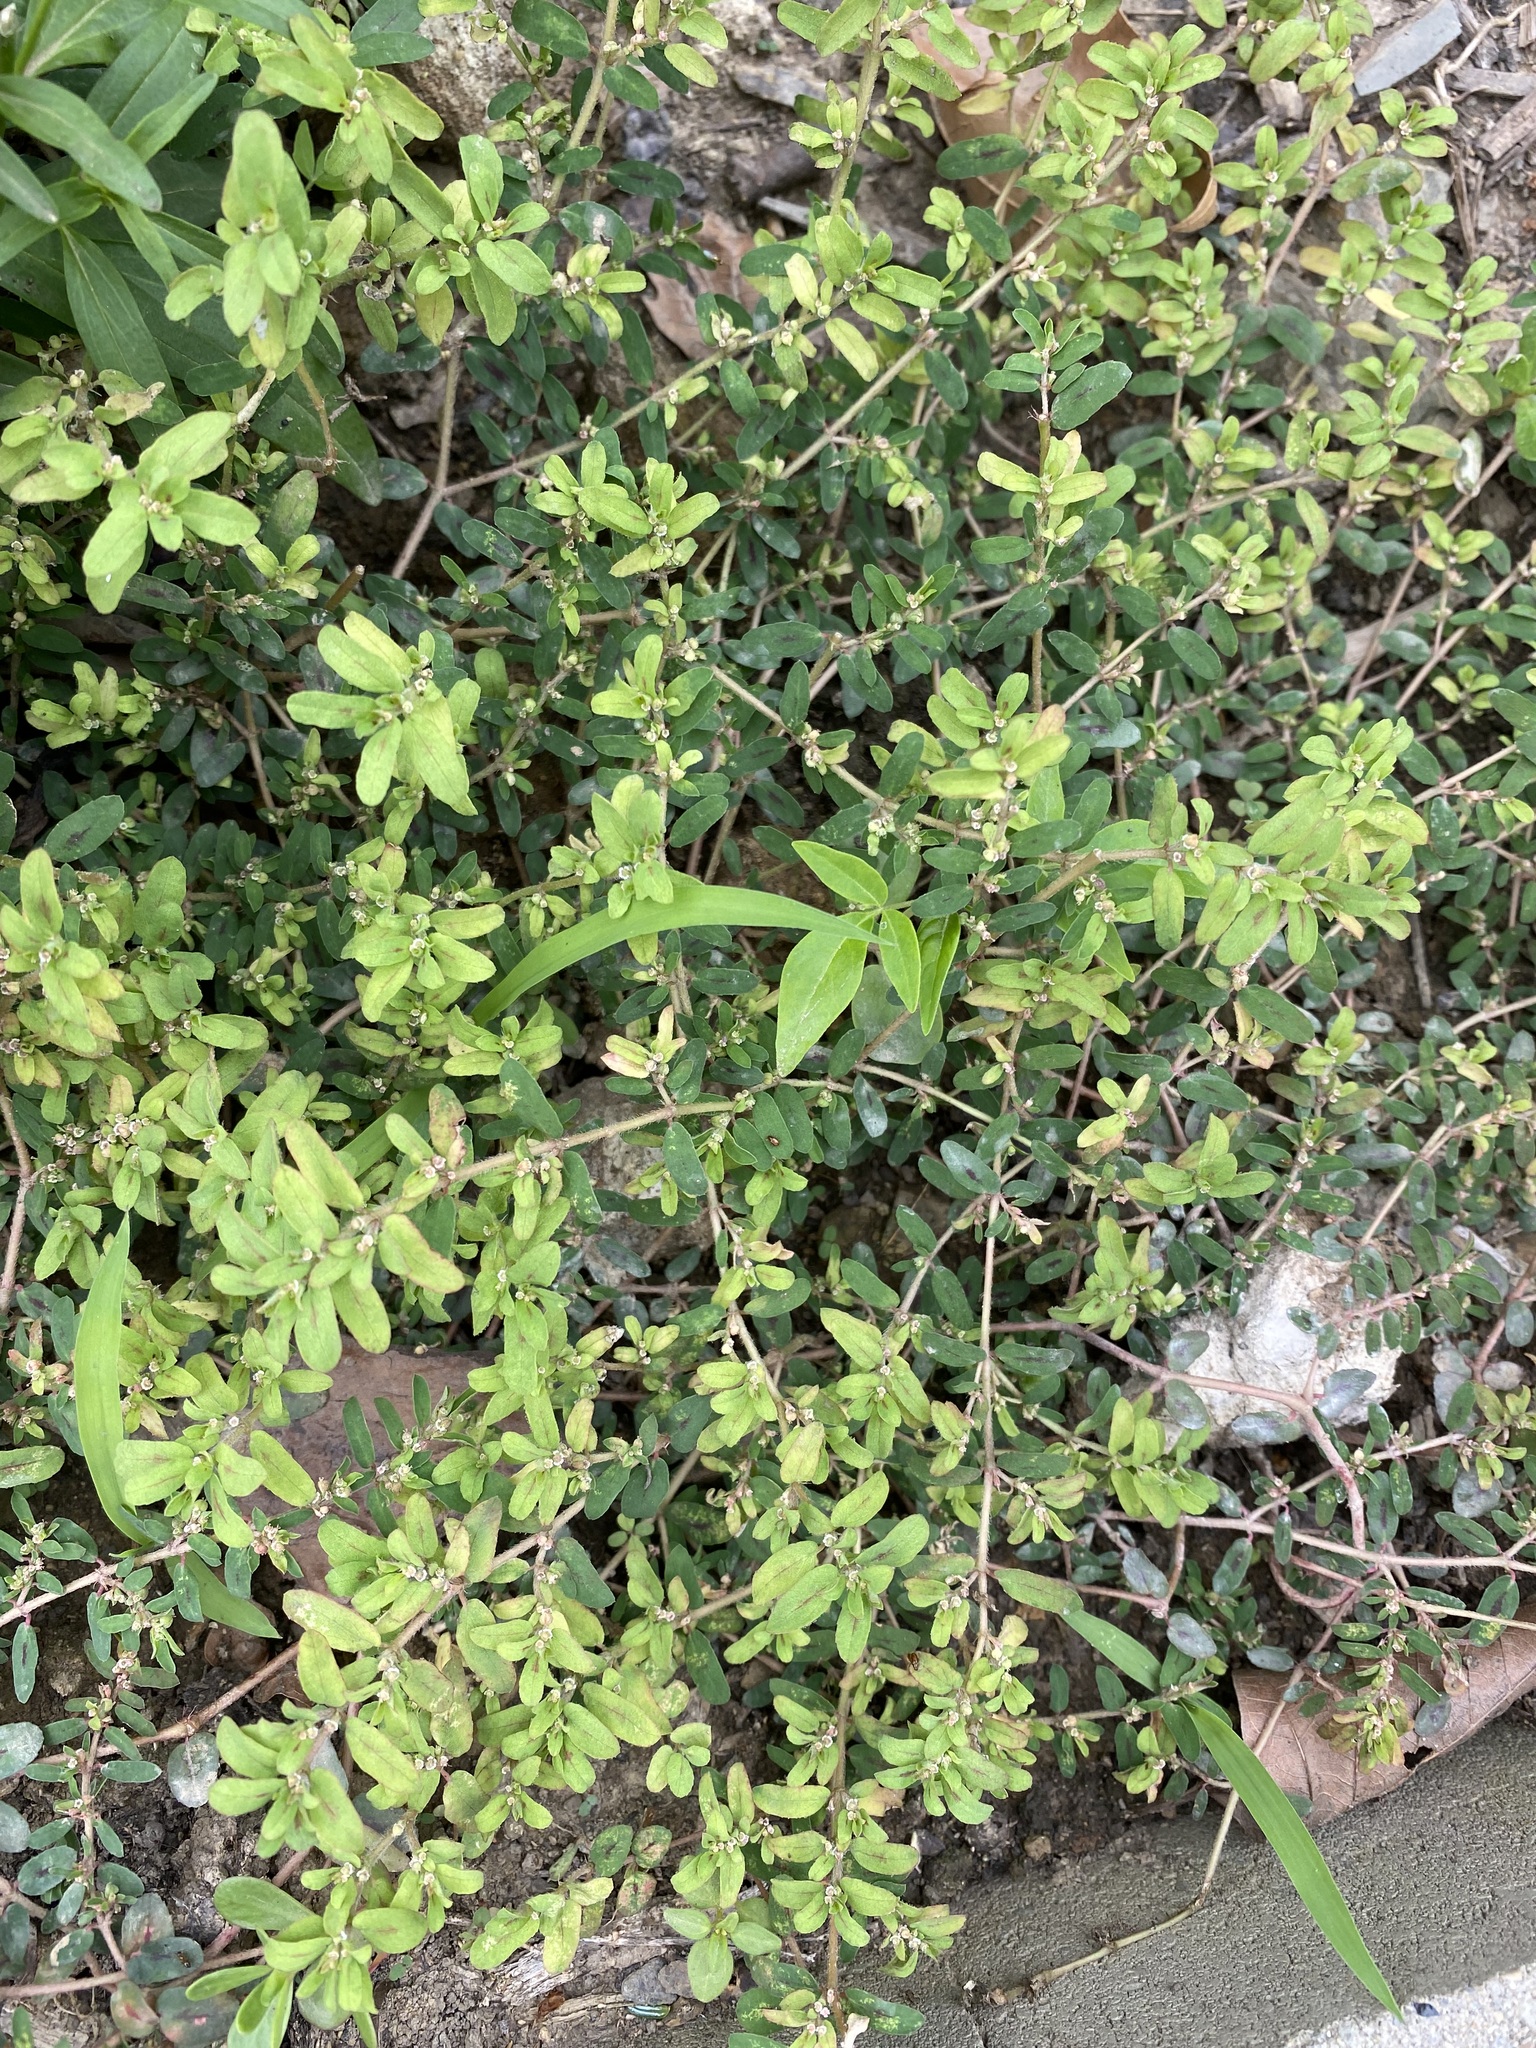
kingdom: Plantae
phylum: Tracheophyta
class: Magnoliopsida
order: Malpighiales
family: Euphorbiaceae
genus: Euphorbia
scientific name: Euphorbia maculata
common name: Spotted spurge
